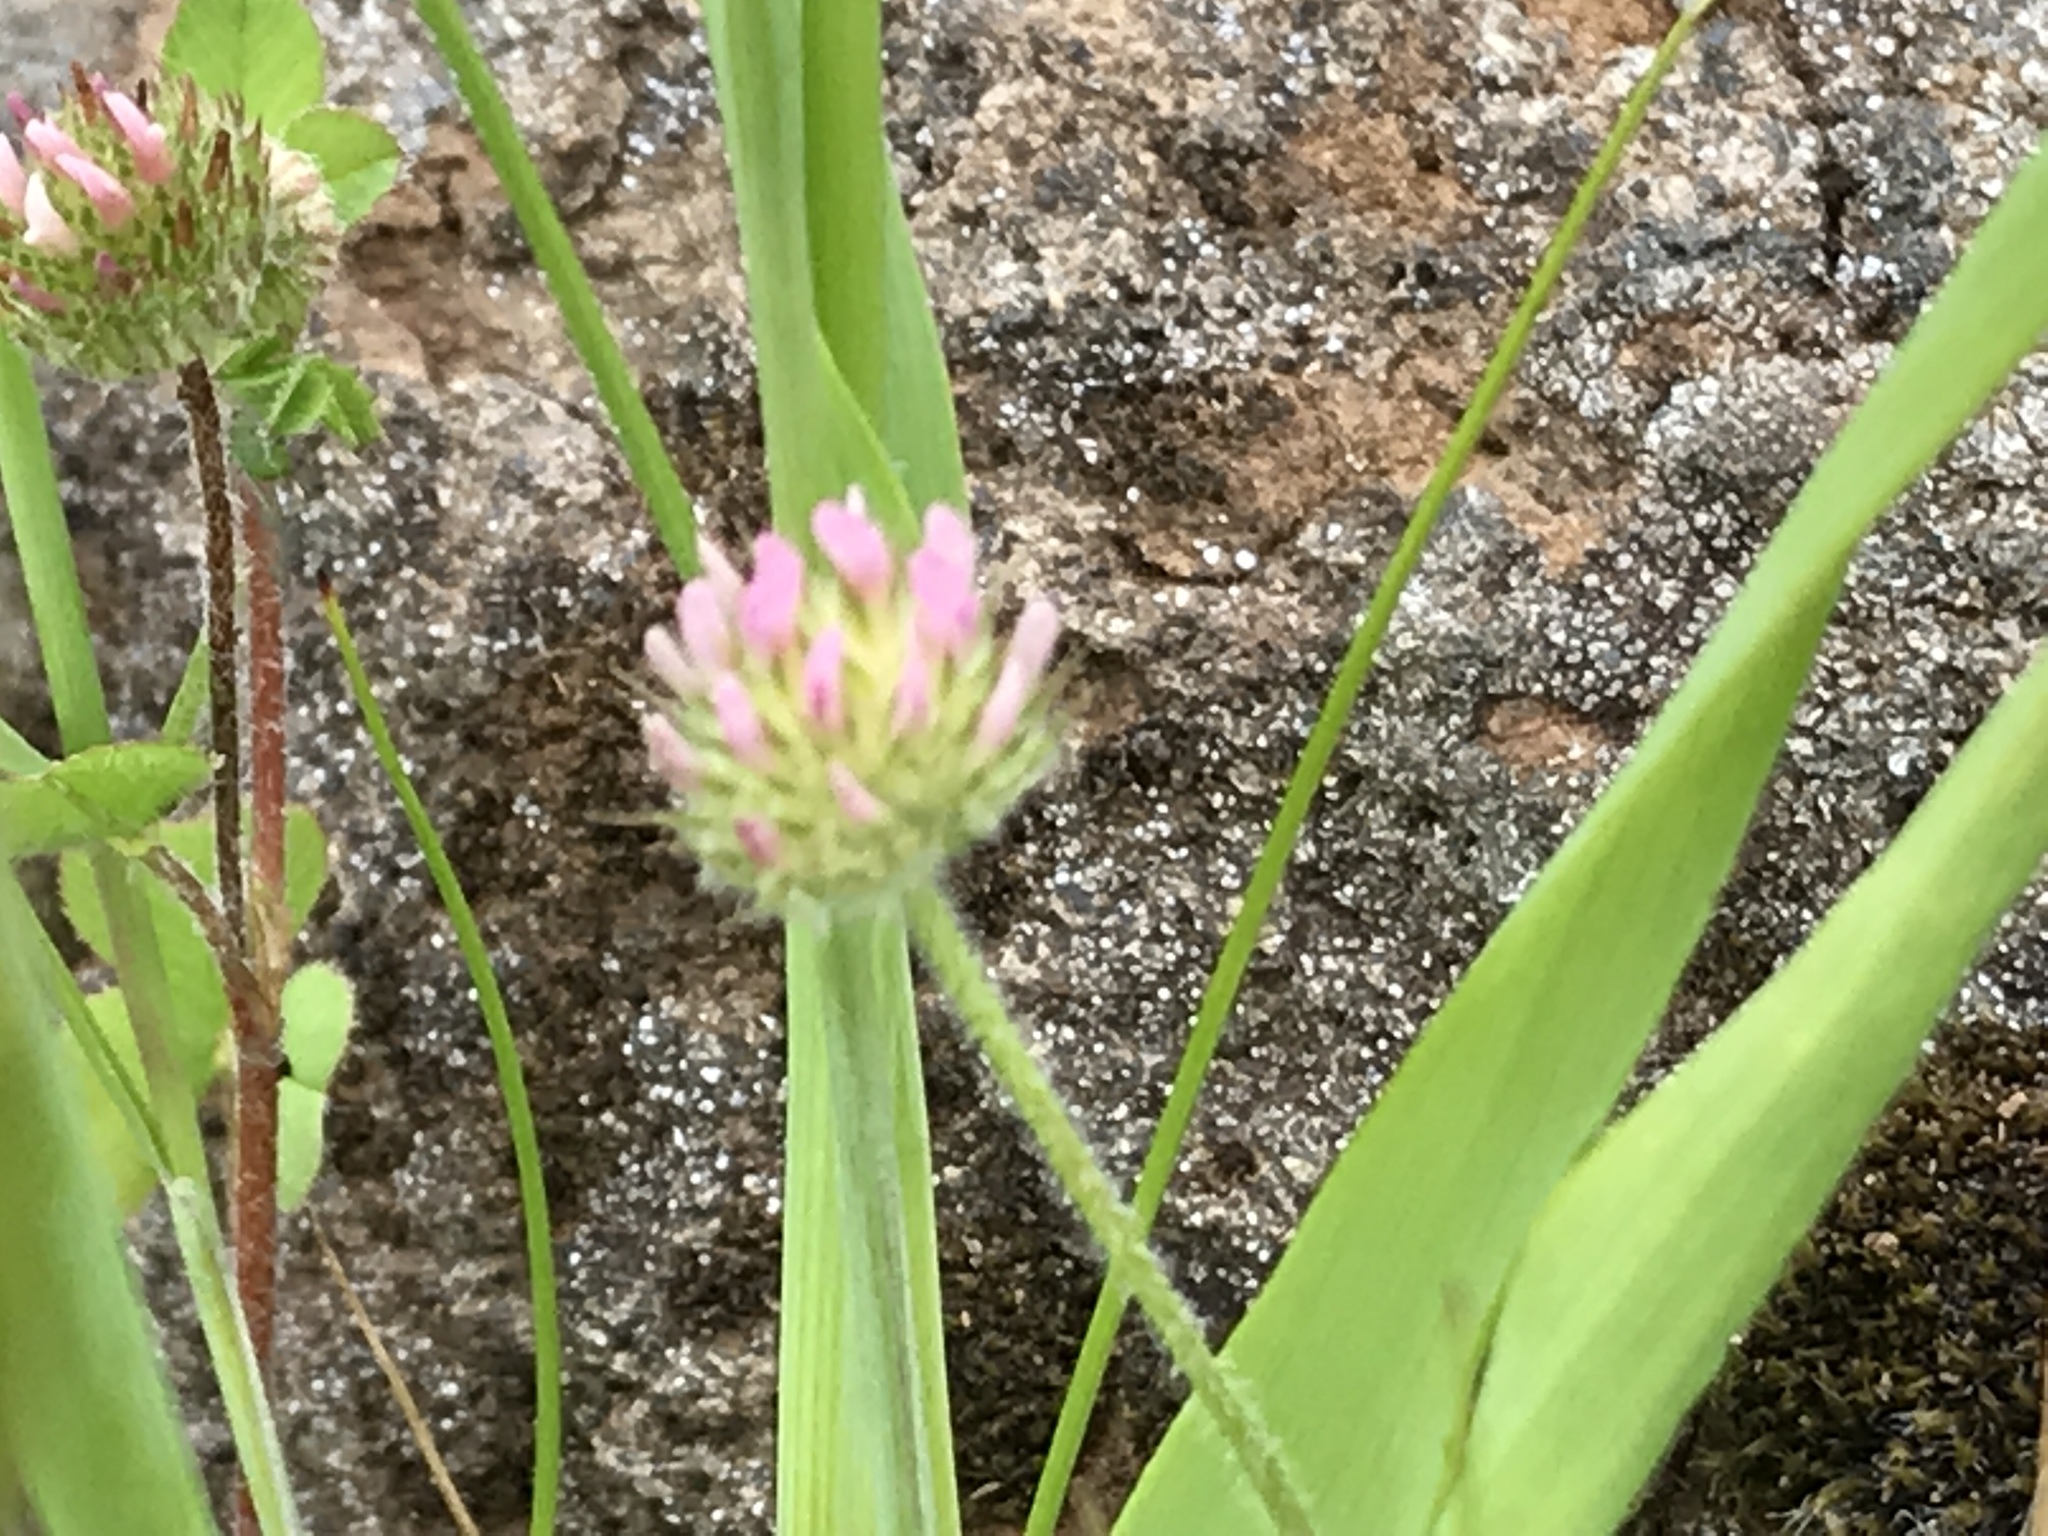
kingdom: Plantae
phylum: Tracheophyta
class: Magnoliopsida
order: Fabales
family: Fabaceae
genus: Trifolium
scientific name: Trifolium microcephalum
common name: Maiden clover
